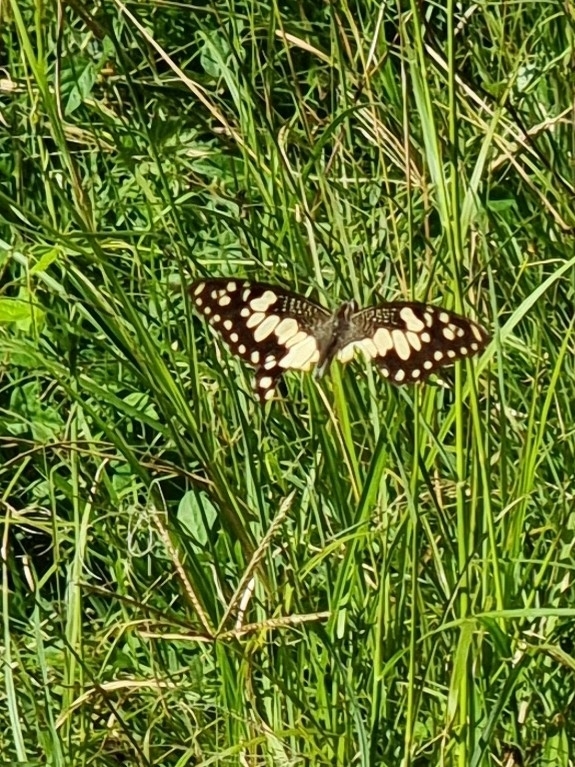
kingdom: Animalia
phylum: Arthropoda
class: Insecta
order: Lepidoptera
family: Papilionidae
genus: Papilio
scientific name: Papilio demoleus
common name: Lime butterfly
